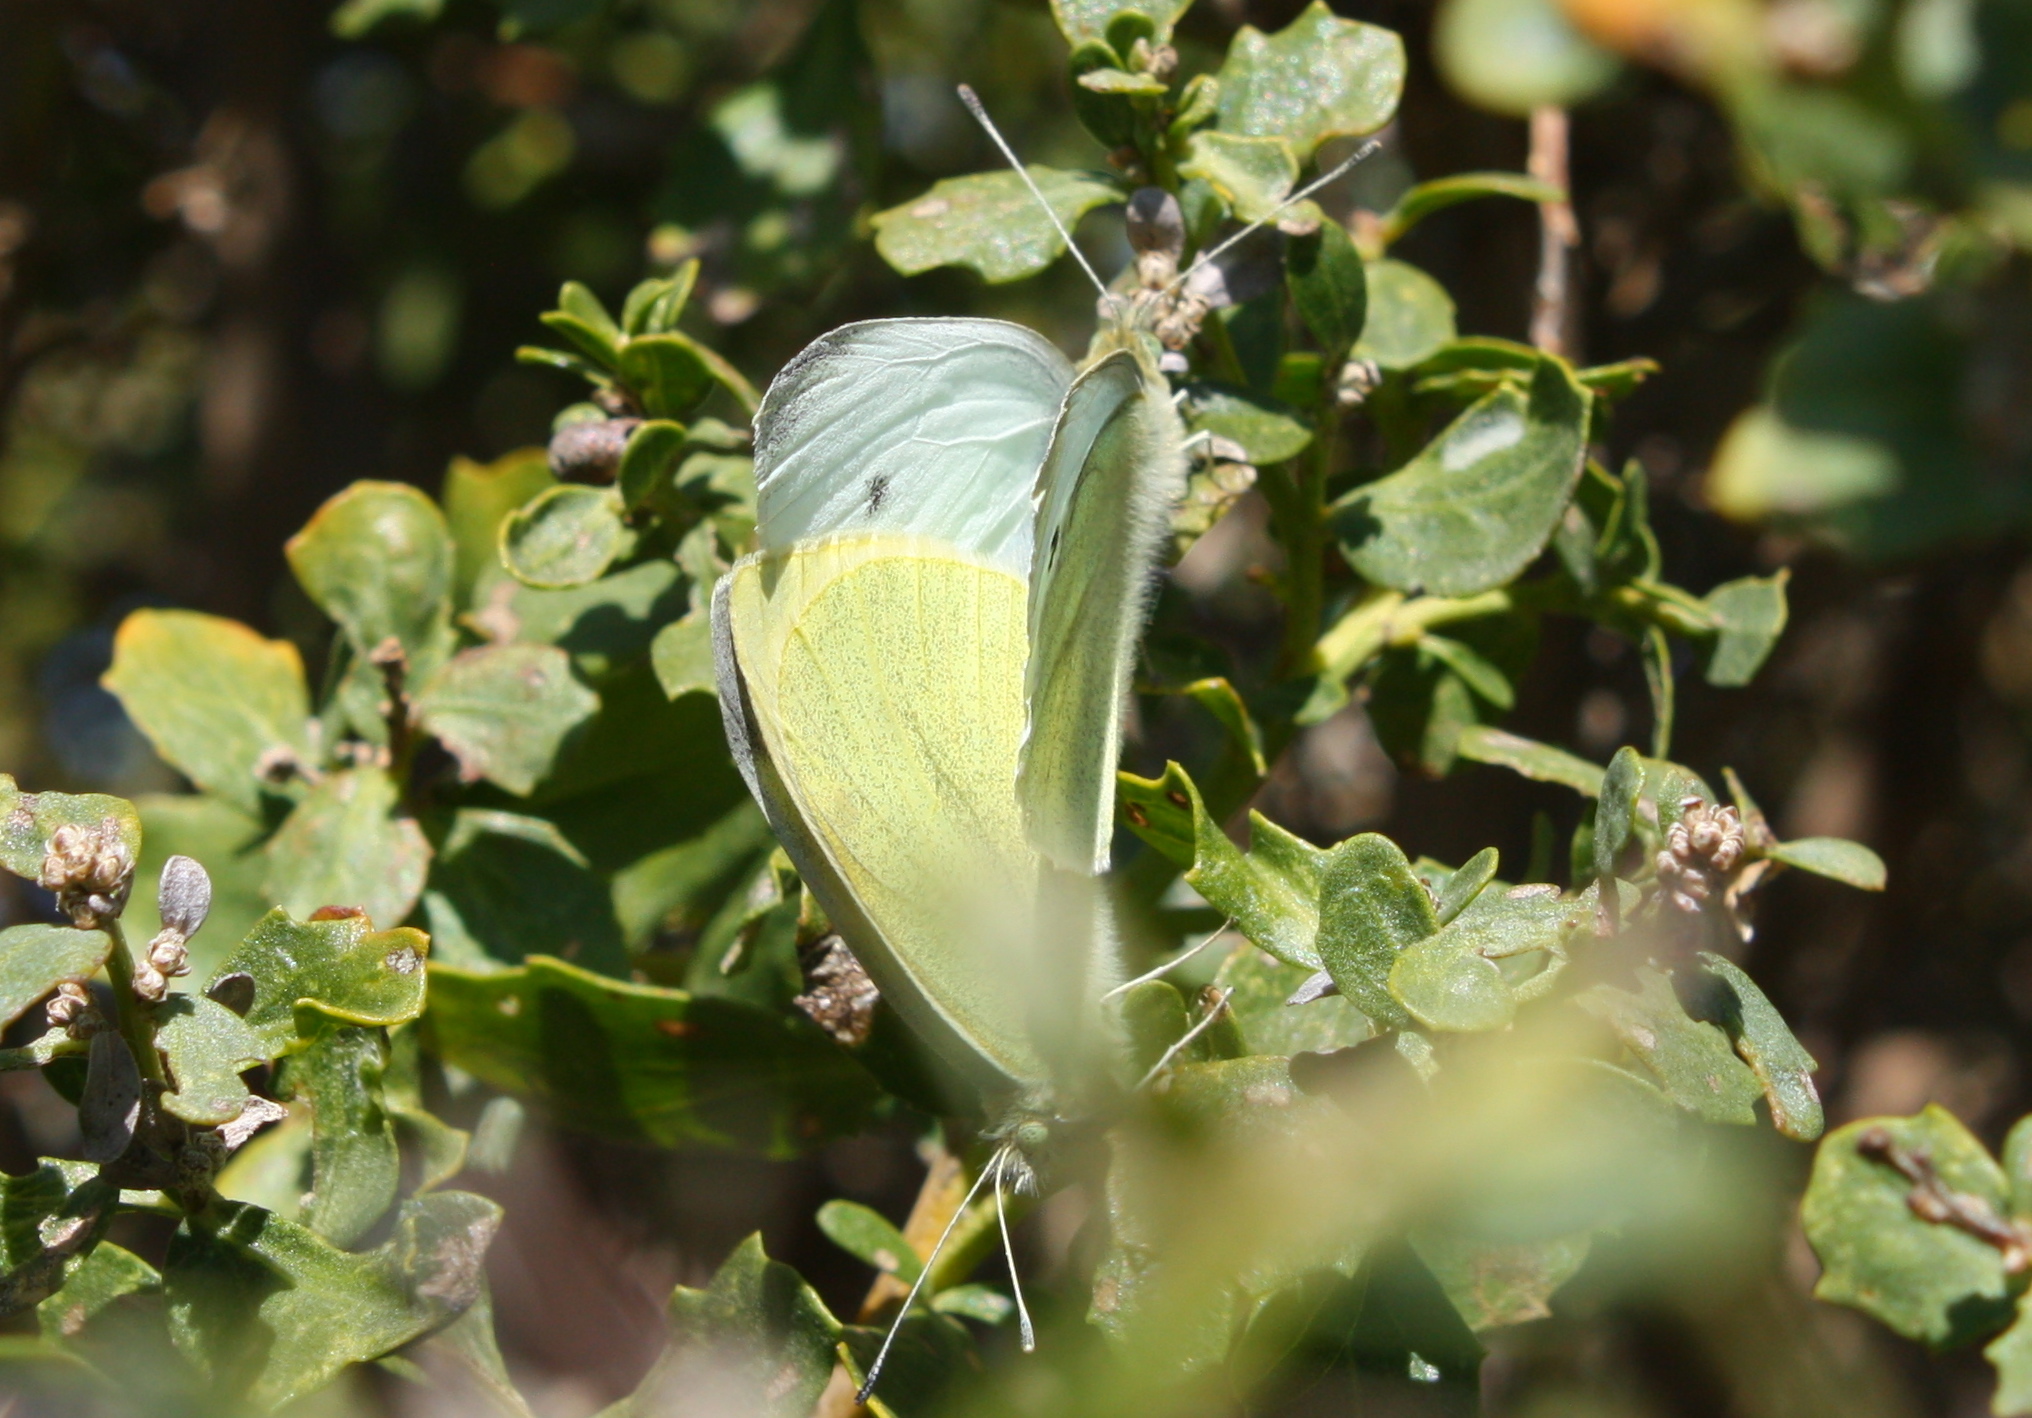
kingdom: Animalia
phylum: Arthropoda
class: Insecta
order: Lepidoptera
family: Pieridae
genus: Pieris
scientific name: Pieris rapae
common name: Small white
